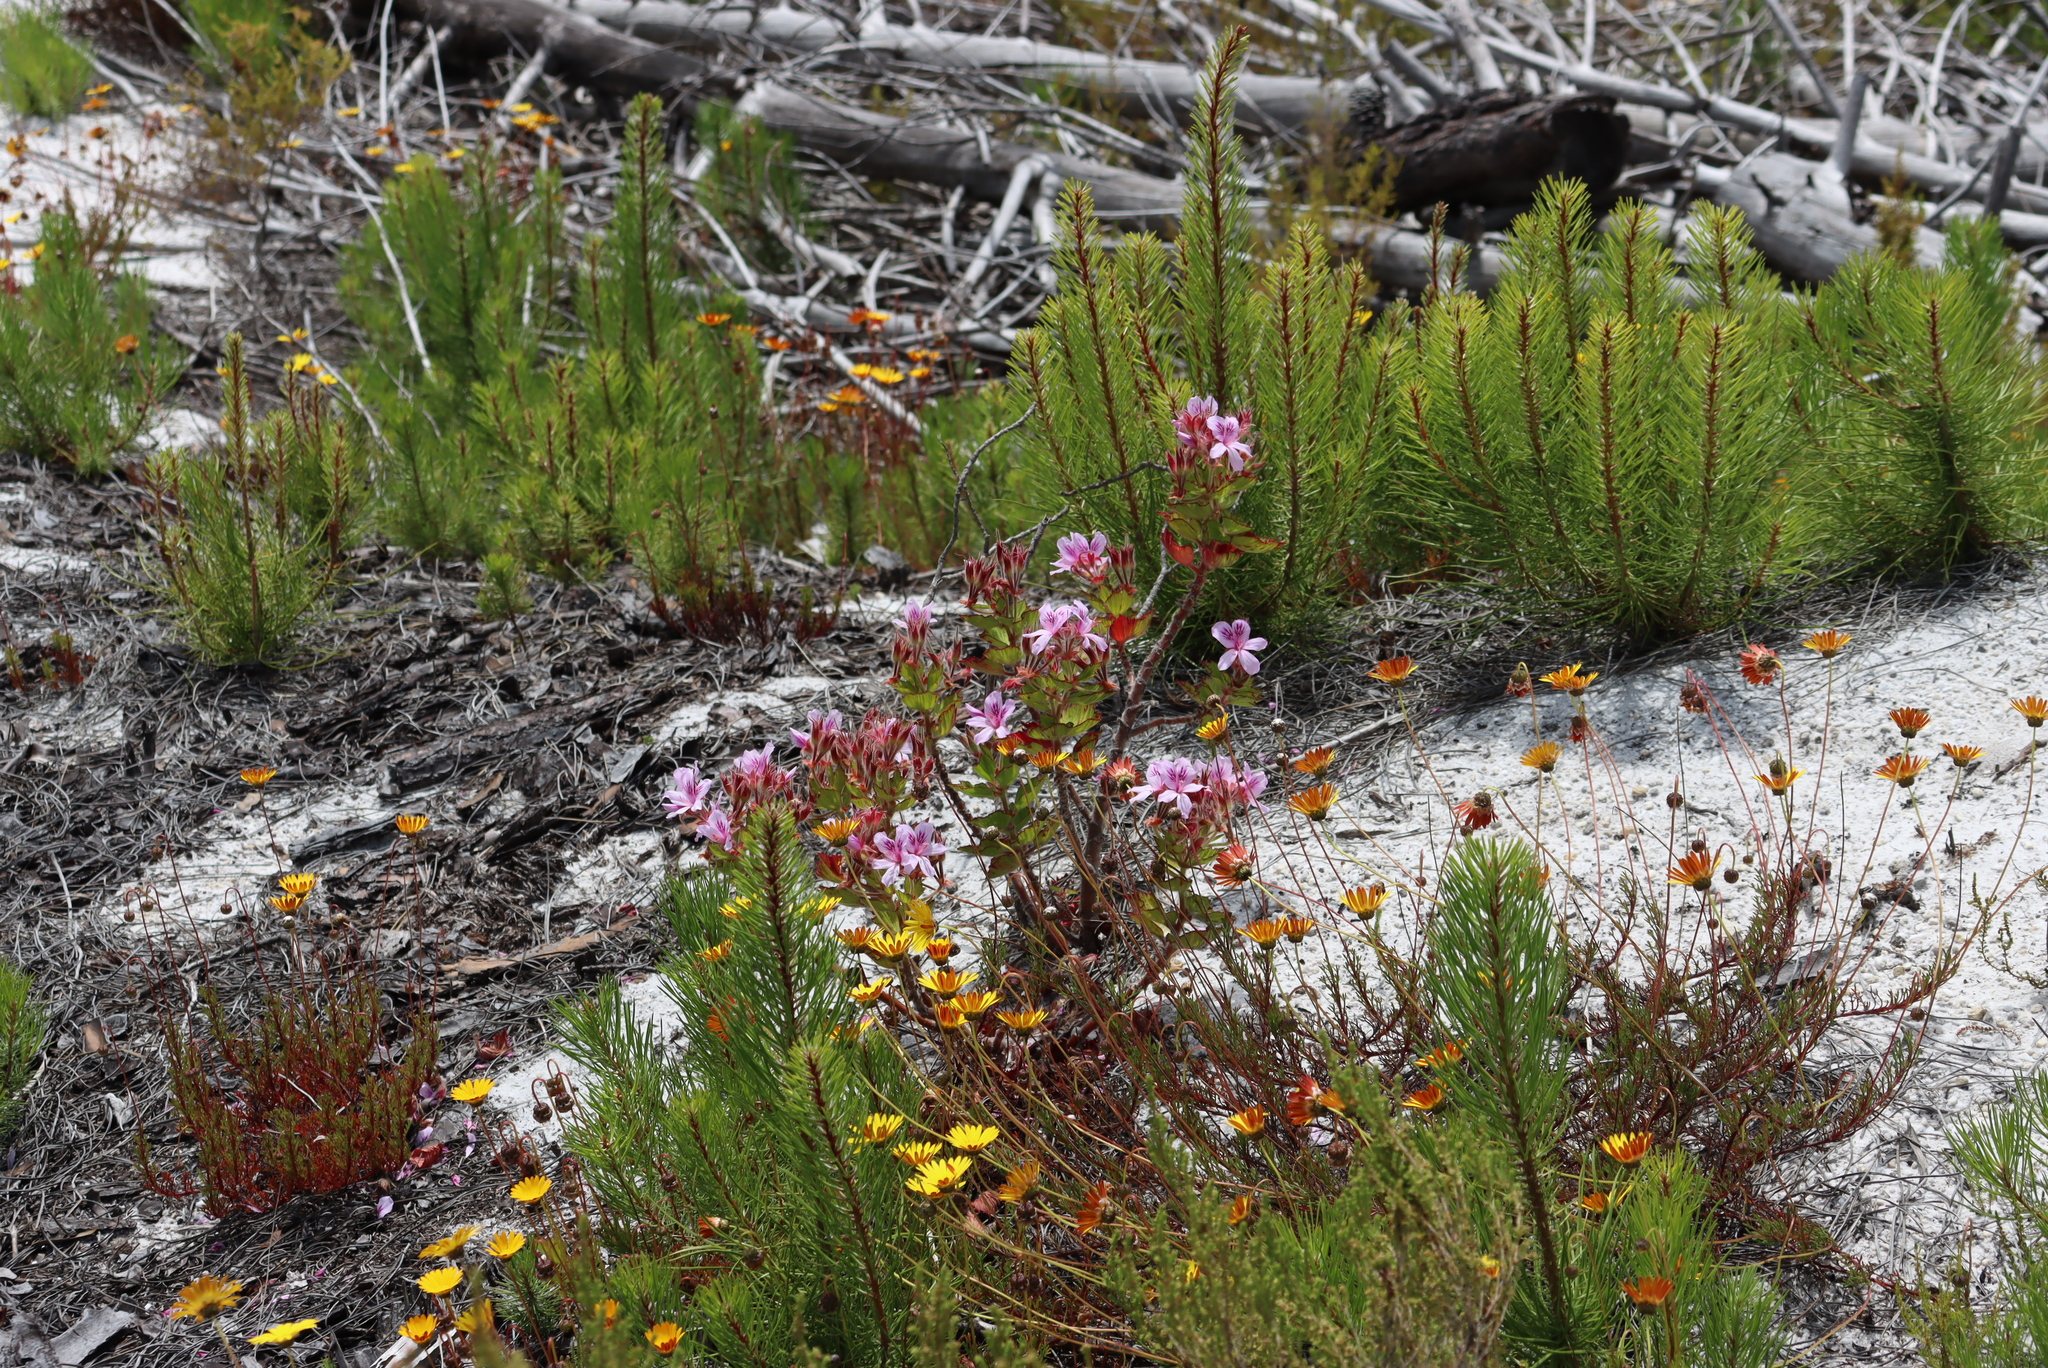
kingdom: Plantae
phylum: Tracheophyta
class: Magnoliopsida
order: Geraniales
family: Geraniaceae
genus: Pelargonium
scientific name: Pelargonium cucullatum
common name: Tree pelargonium
